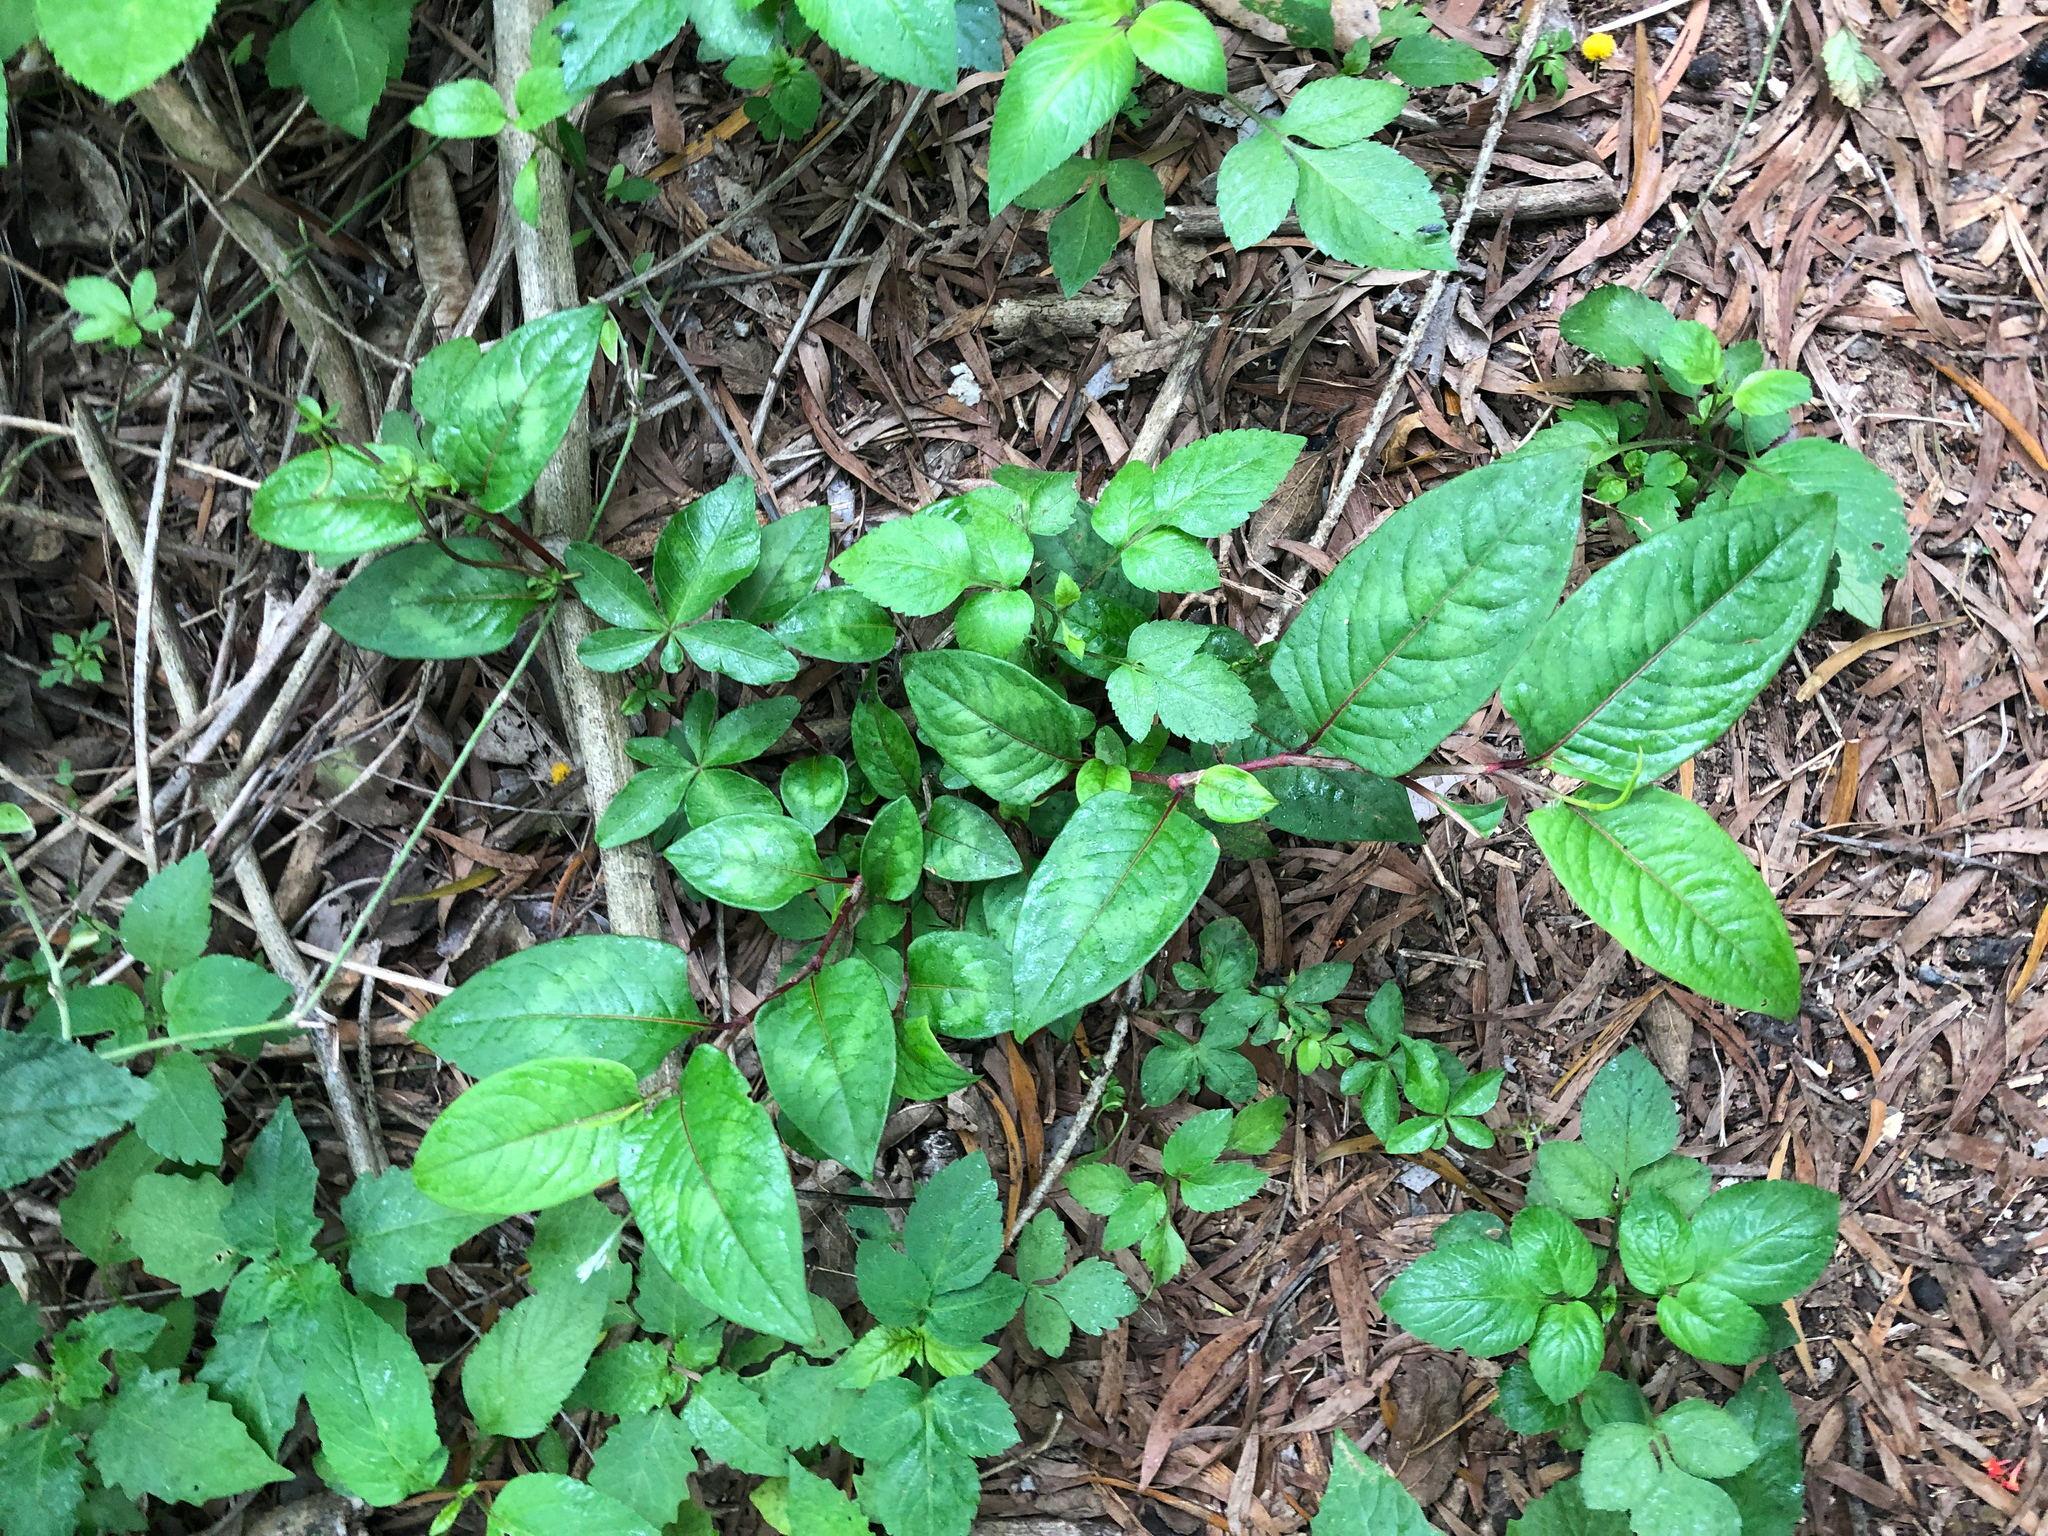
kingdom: Plantae
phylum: Tracheophyta
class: Magnoliopsida
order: Caryophyllales
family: Polygonaceae
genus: Persicaria
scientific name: Persicaria chinensis
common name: Chinese knotweed
